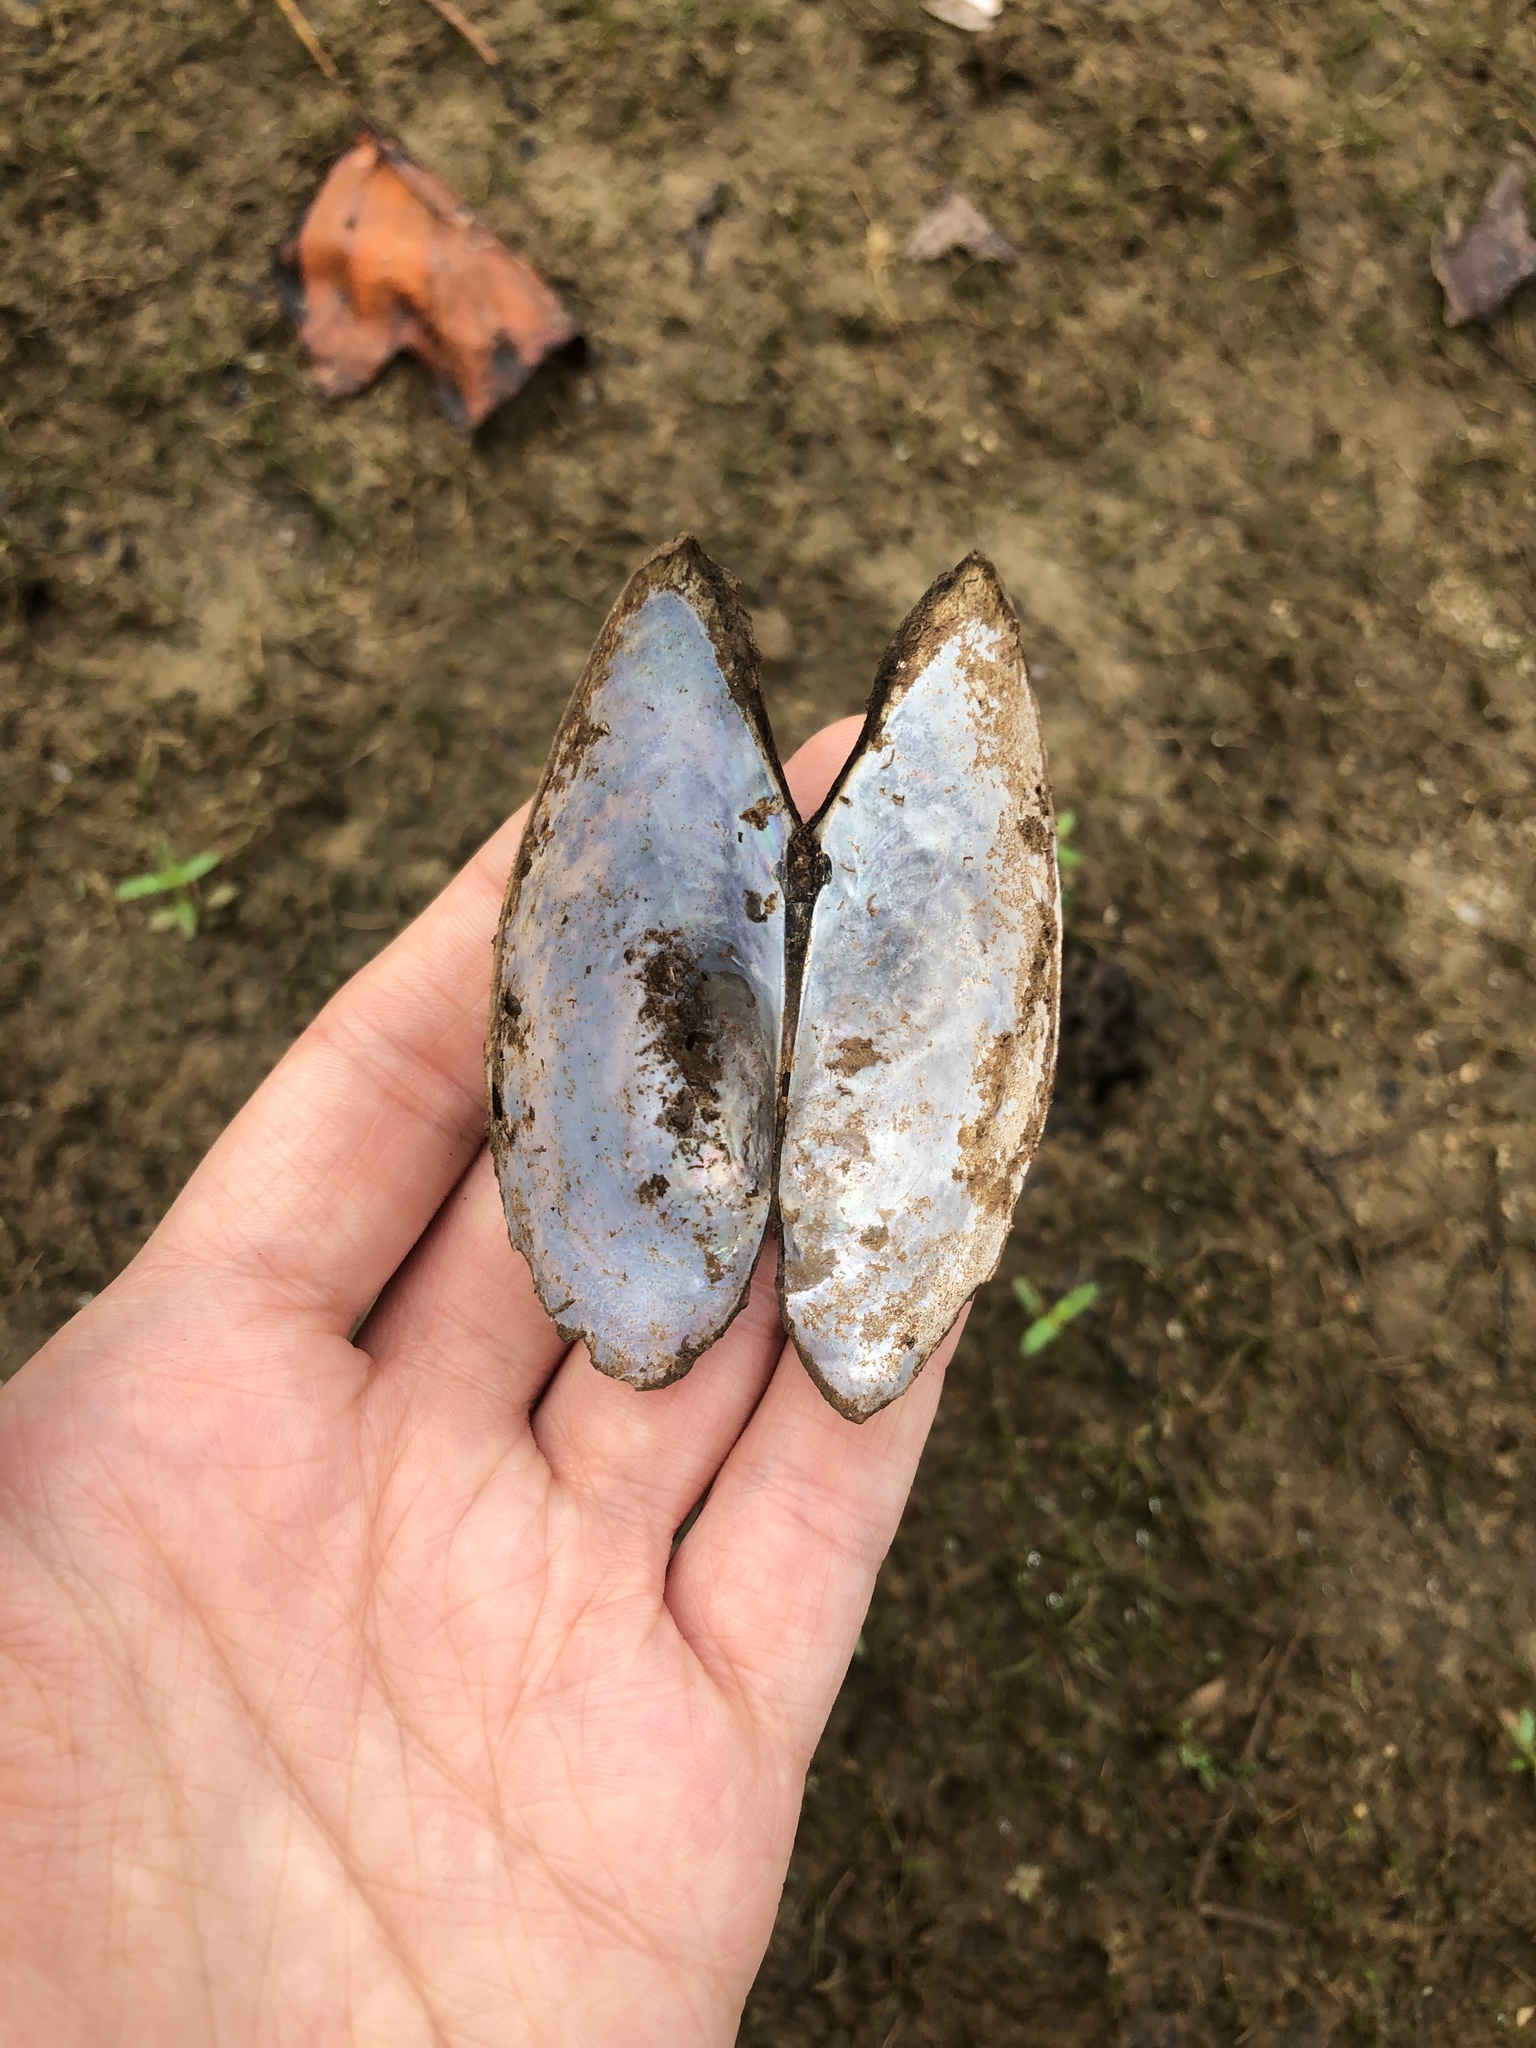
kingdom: Animalia
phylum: Mollusca
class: Bivalvia
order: Unionida
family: Unionidae
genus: Pyganodon
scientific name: Pyganodon cataracta
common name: Eastern floater
